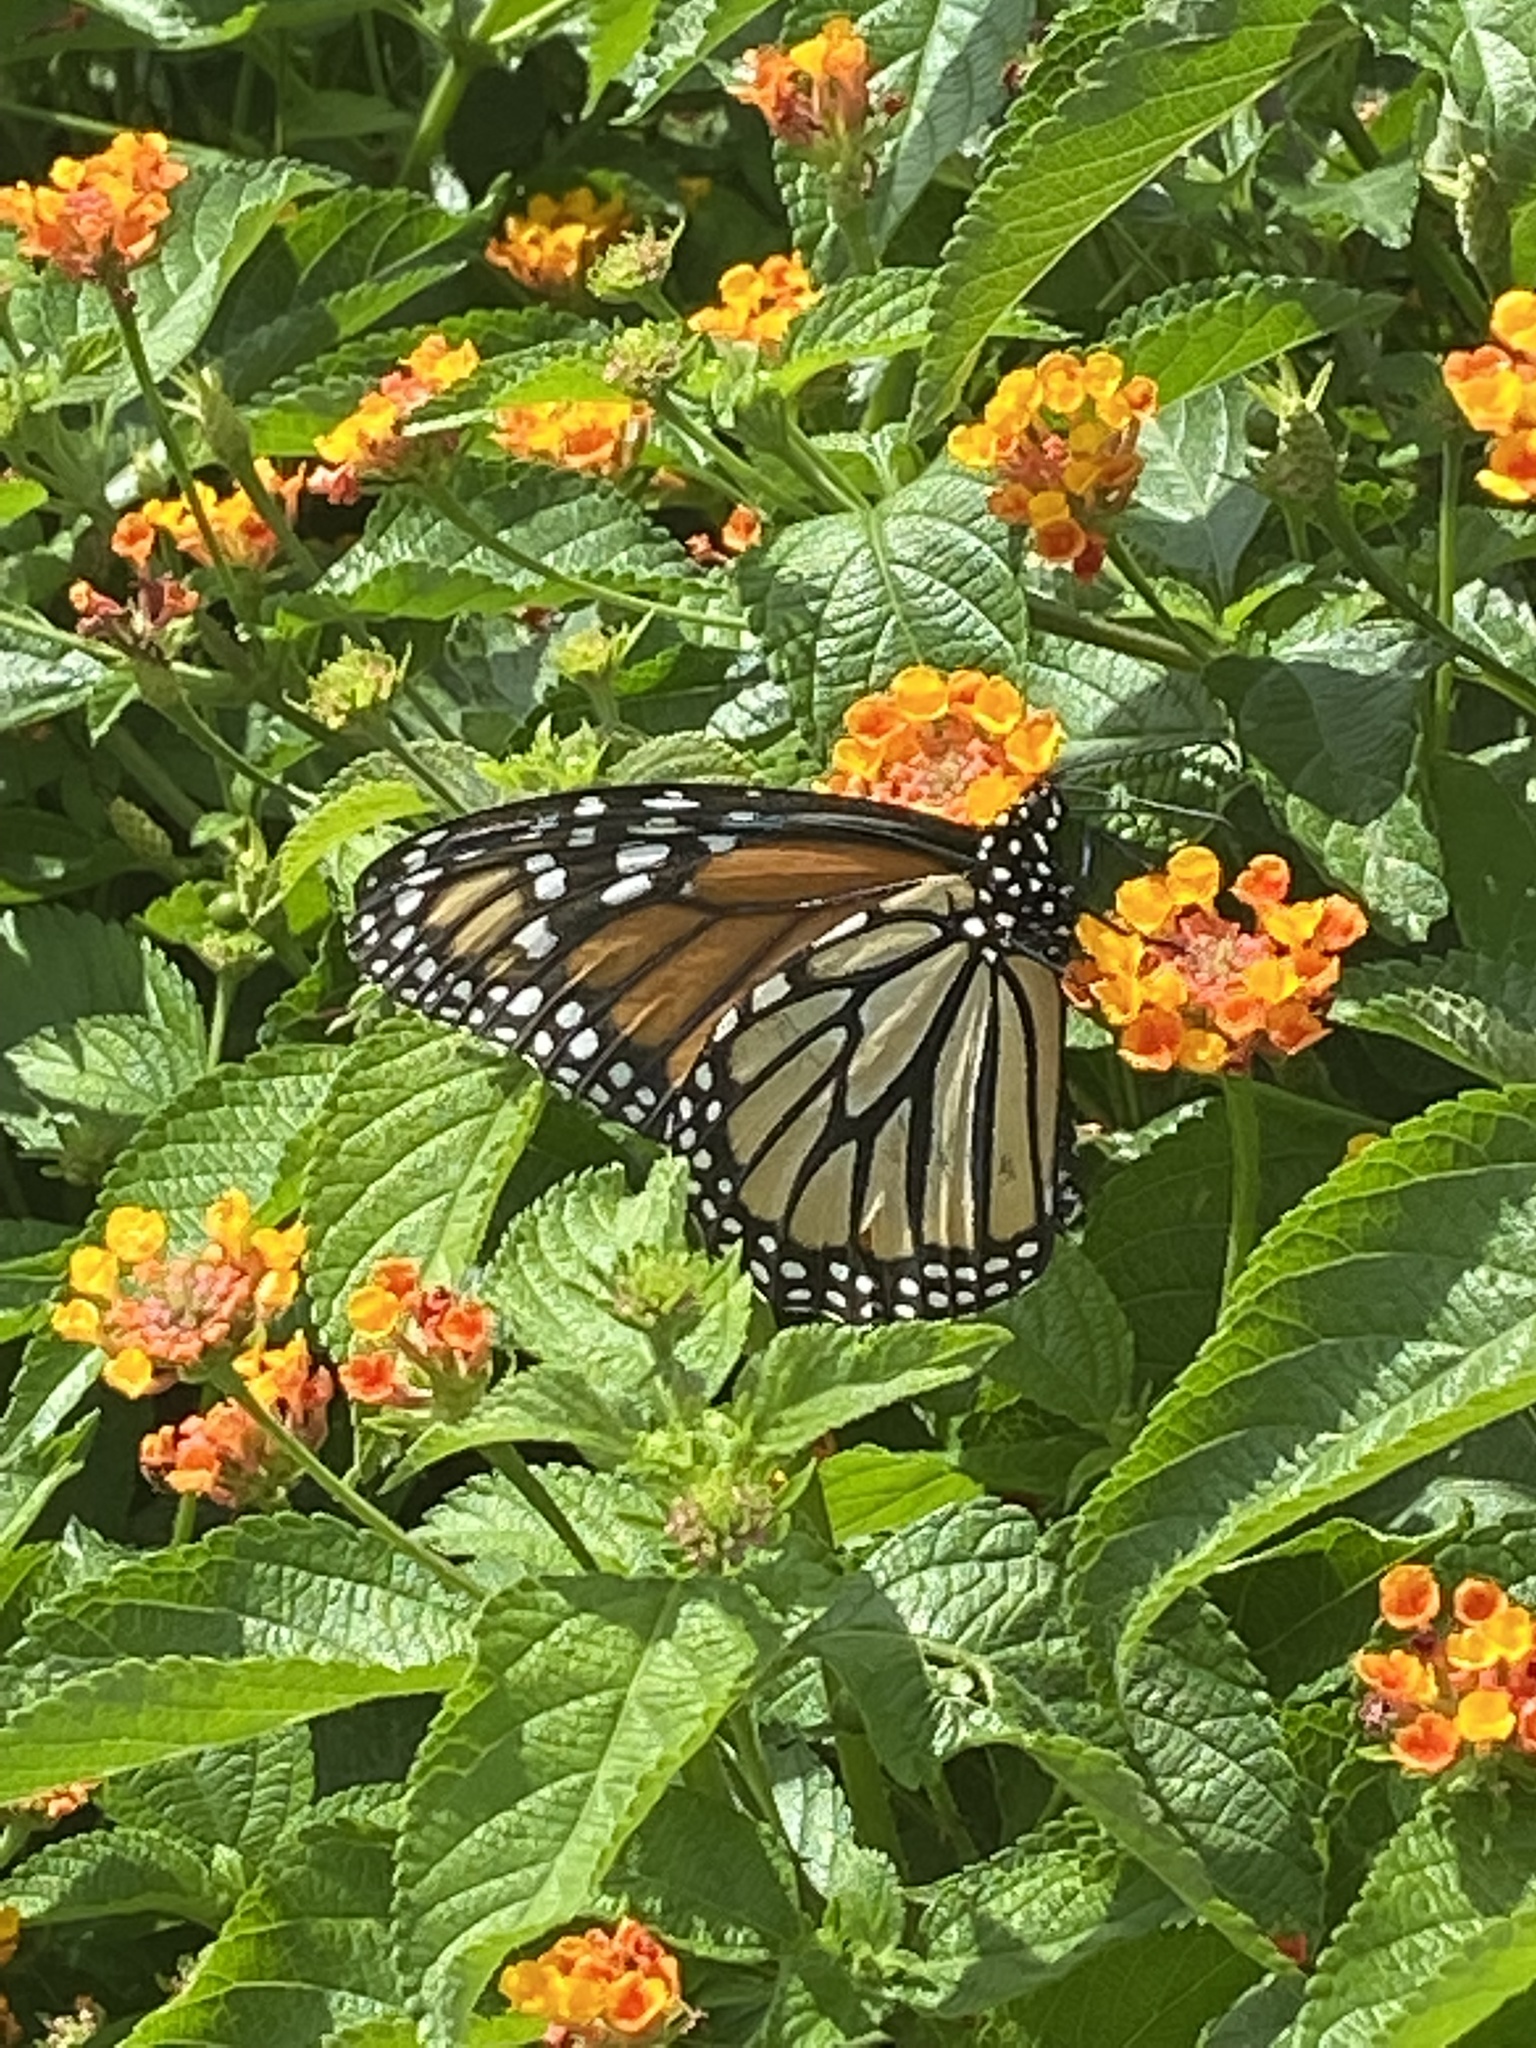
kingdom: Animalia
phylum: Arthropoda
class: Insecta
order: Lepidoptera
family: Nymphalidae
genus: Danaus
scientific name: Danaus plexippus
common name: Monarch
